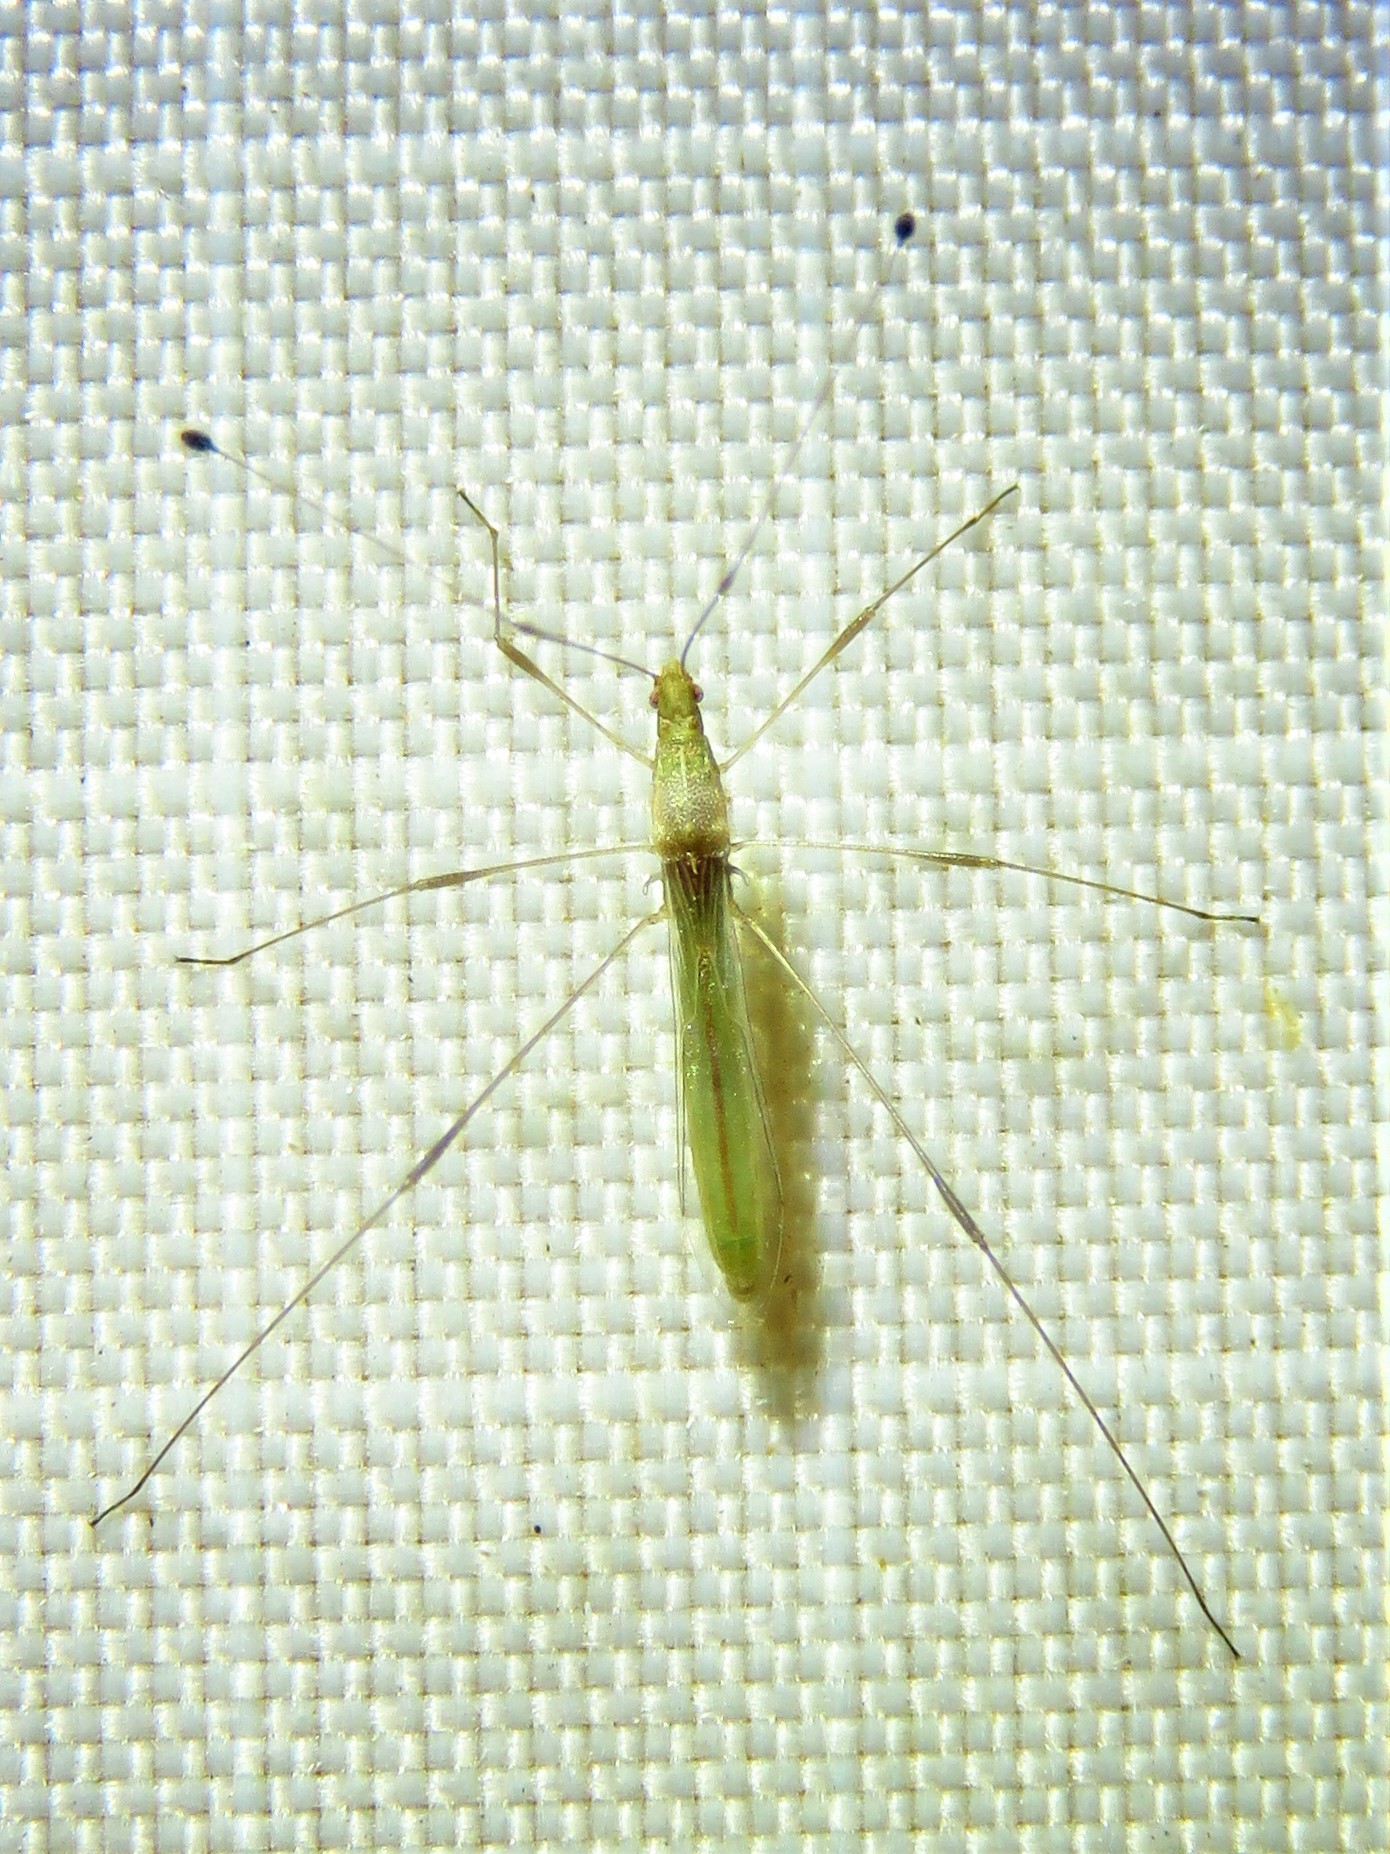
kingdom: Animalia
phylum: Arthropoda
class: Insecta
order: Hemiptera
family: Berytidae
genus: Metacanthus
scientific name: Metacanthus multispinus
